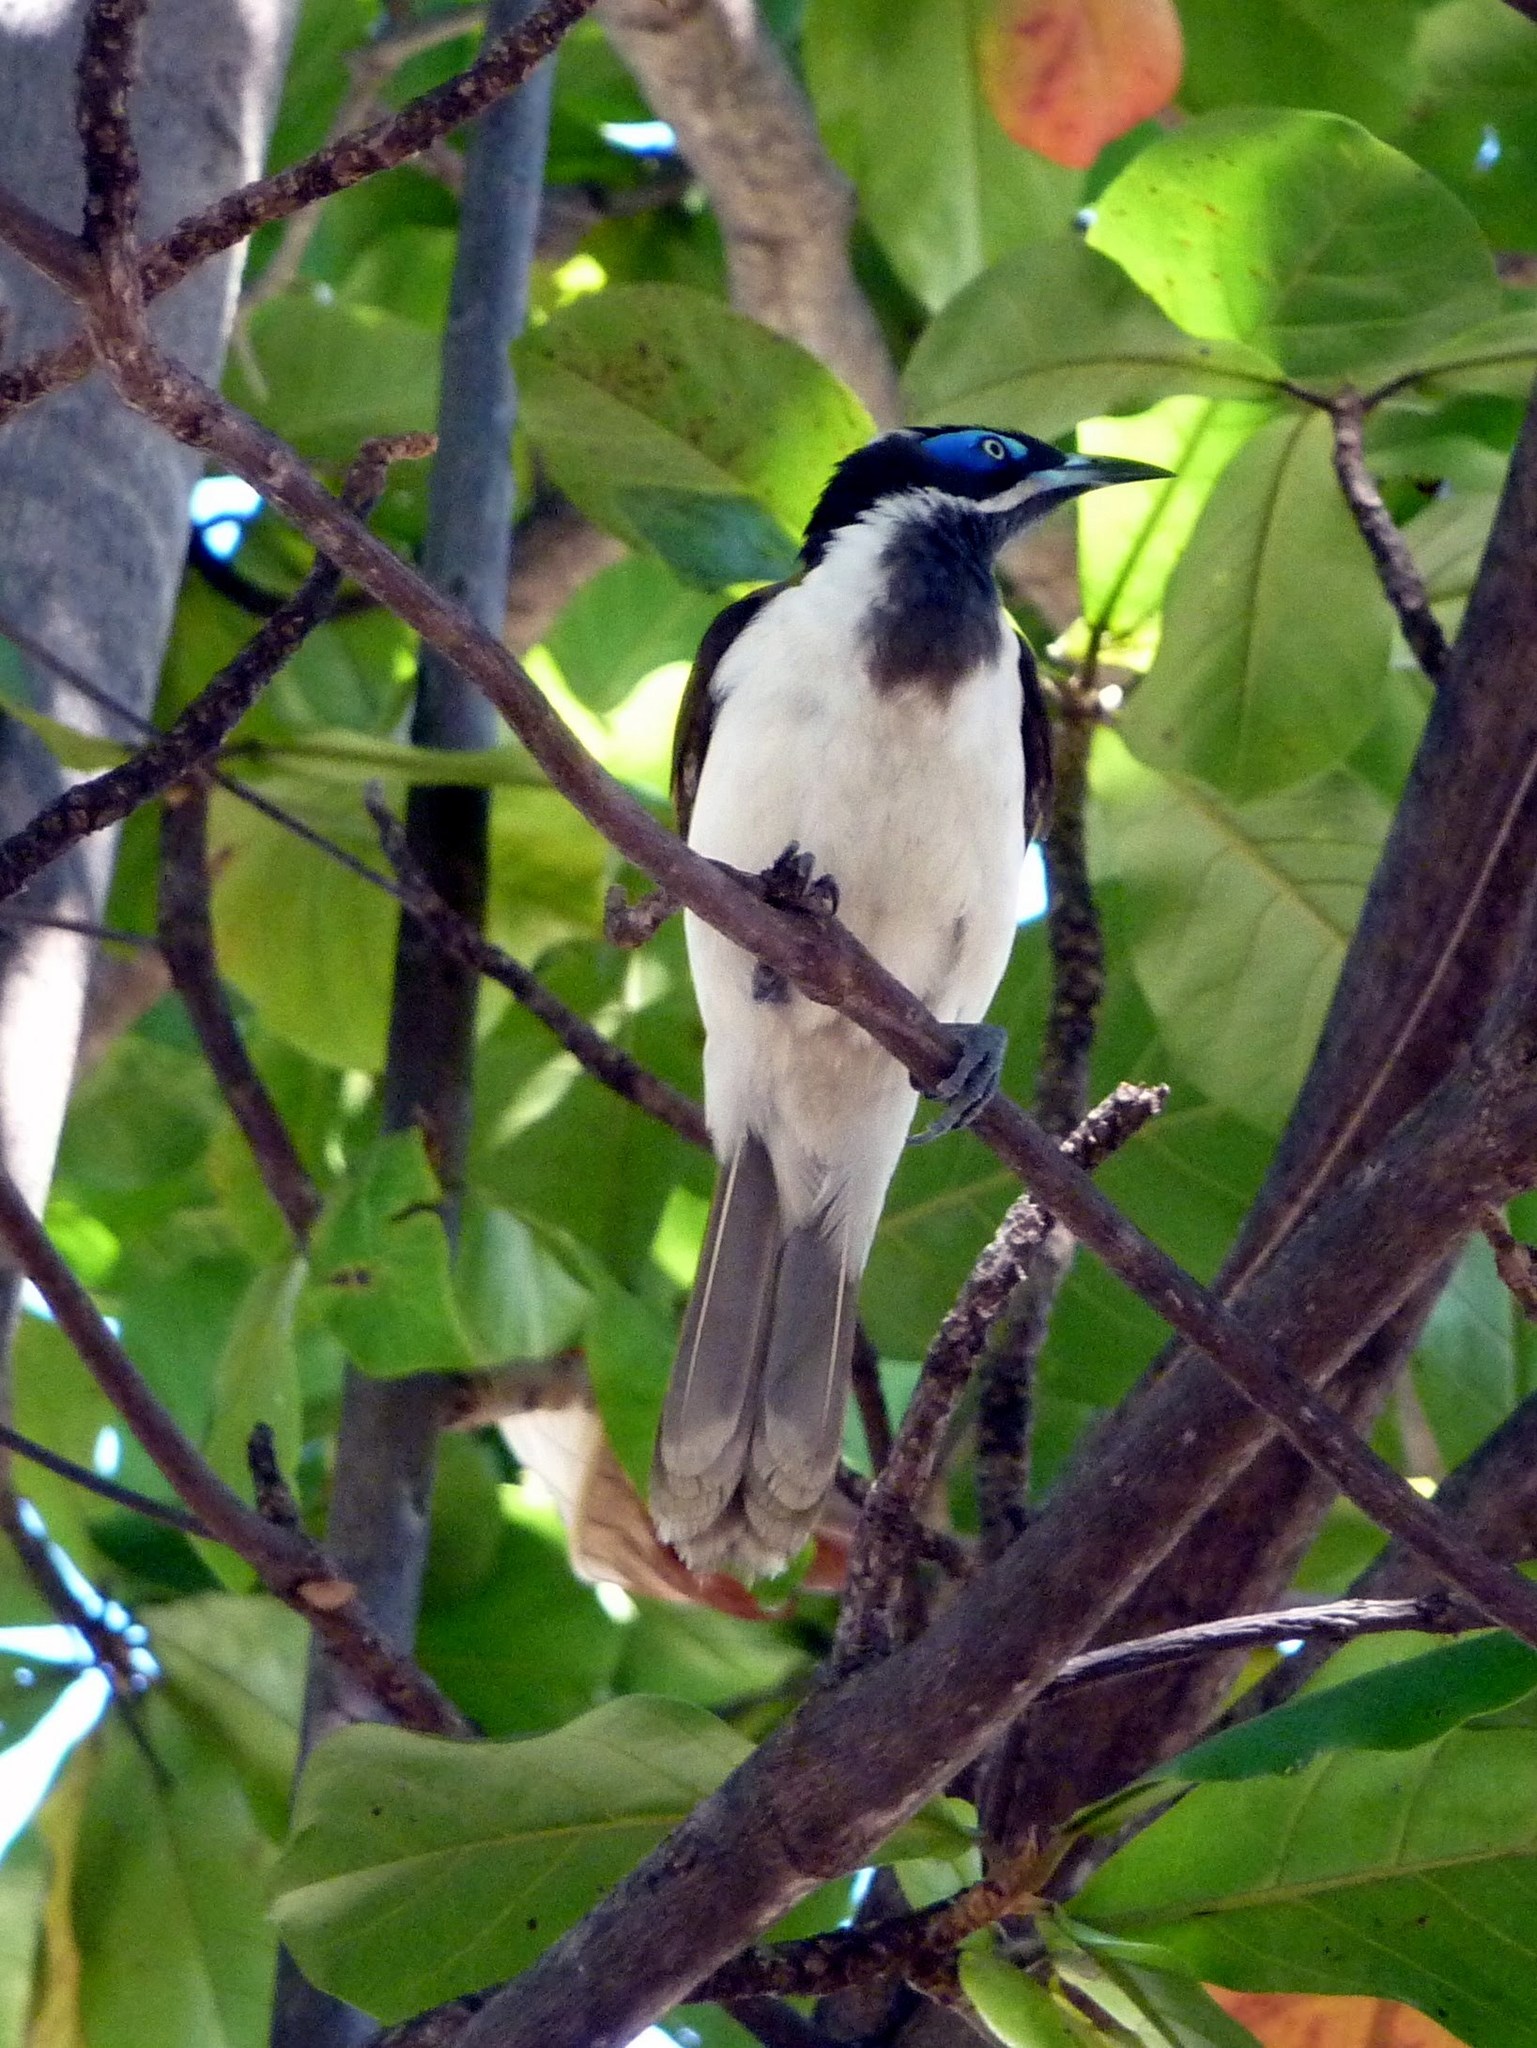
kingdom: Animalia
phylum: Chordata
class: Aves
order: Passeriformes
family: Meliphagidae
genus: Entomyzon
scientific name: Entomyzon cyanotis
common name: Blue-faced honeyeater
